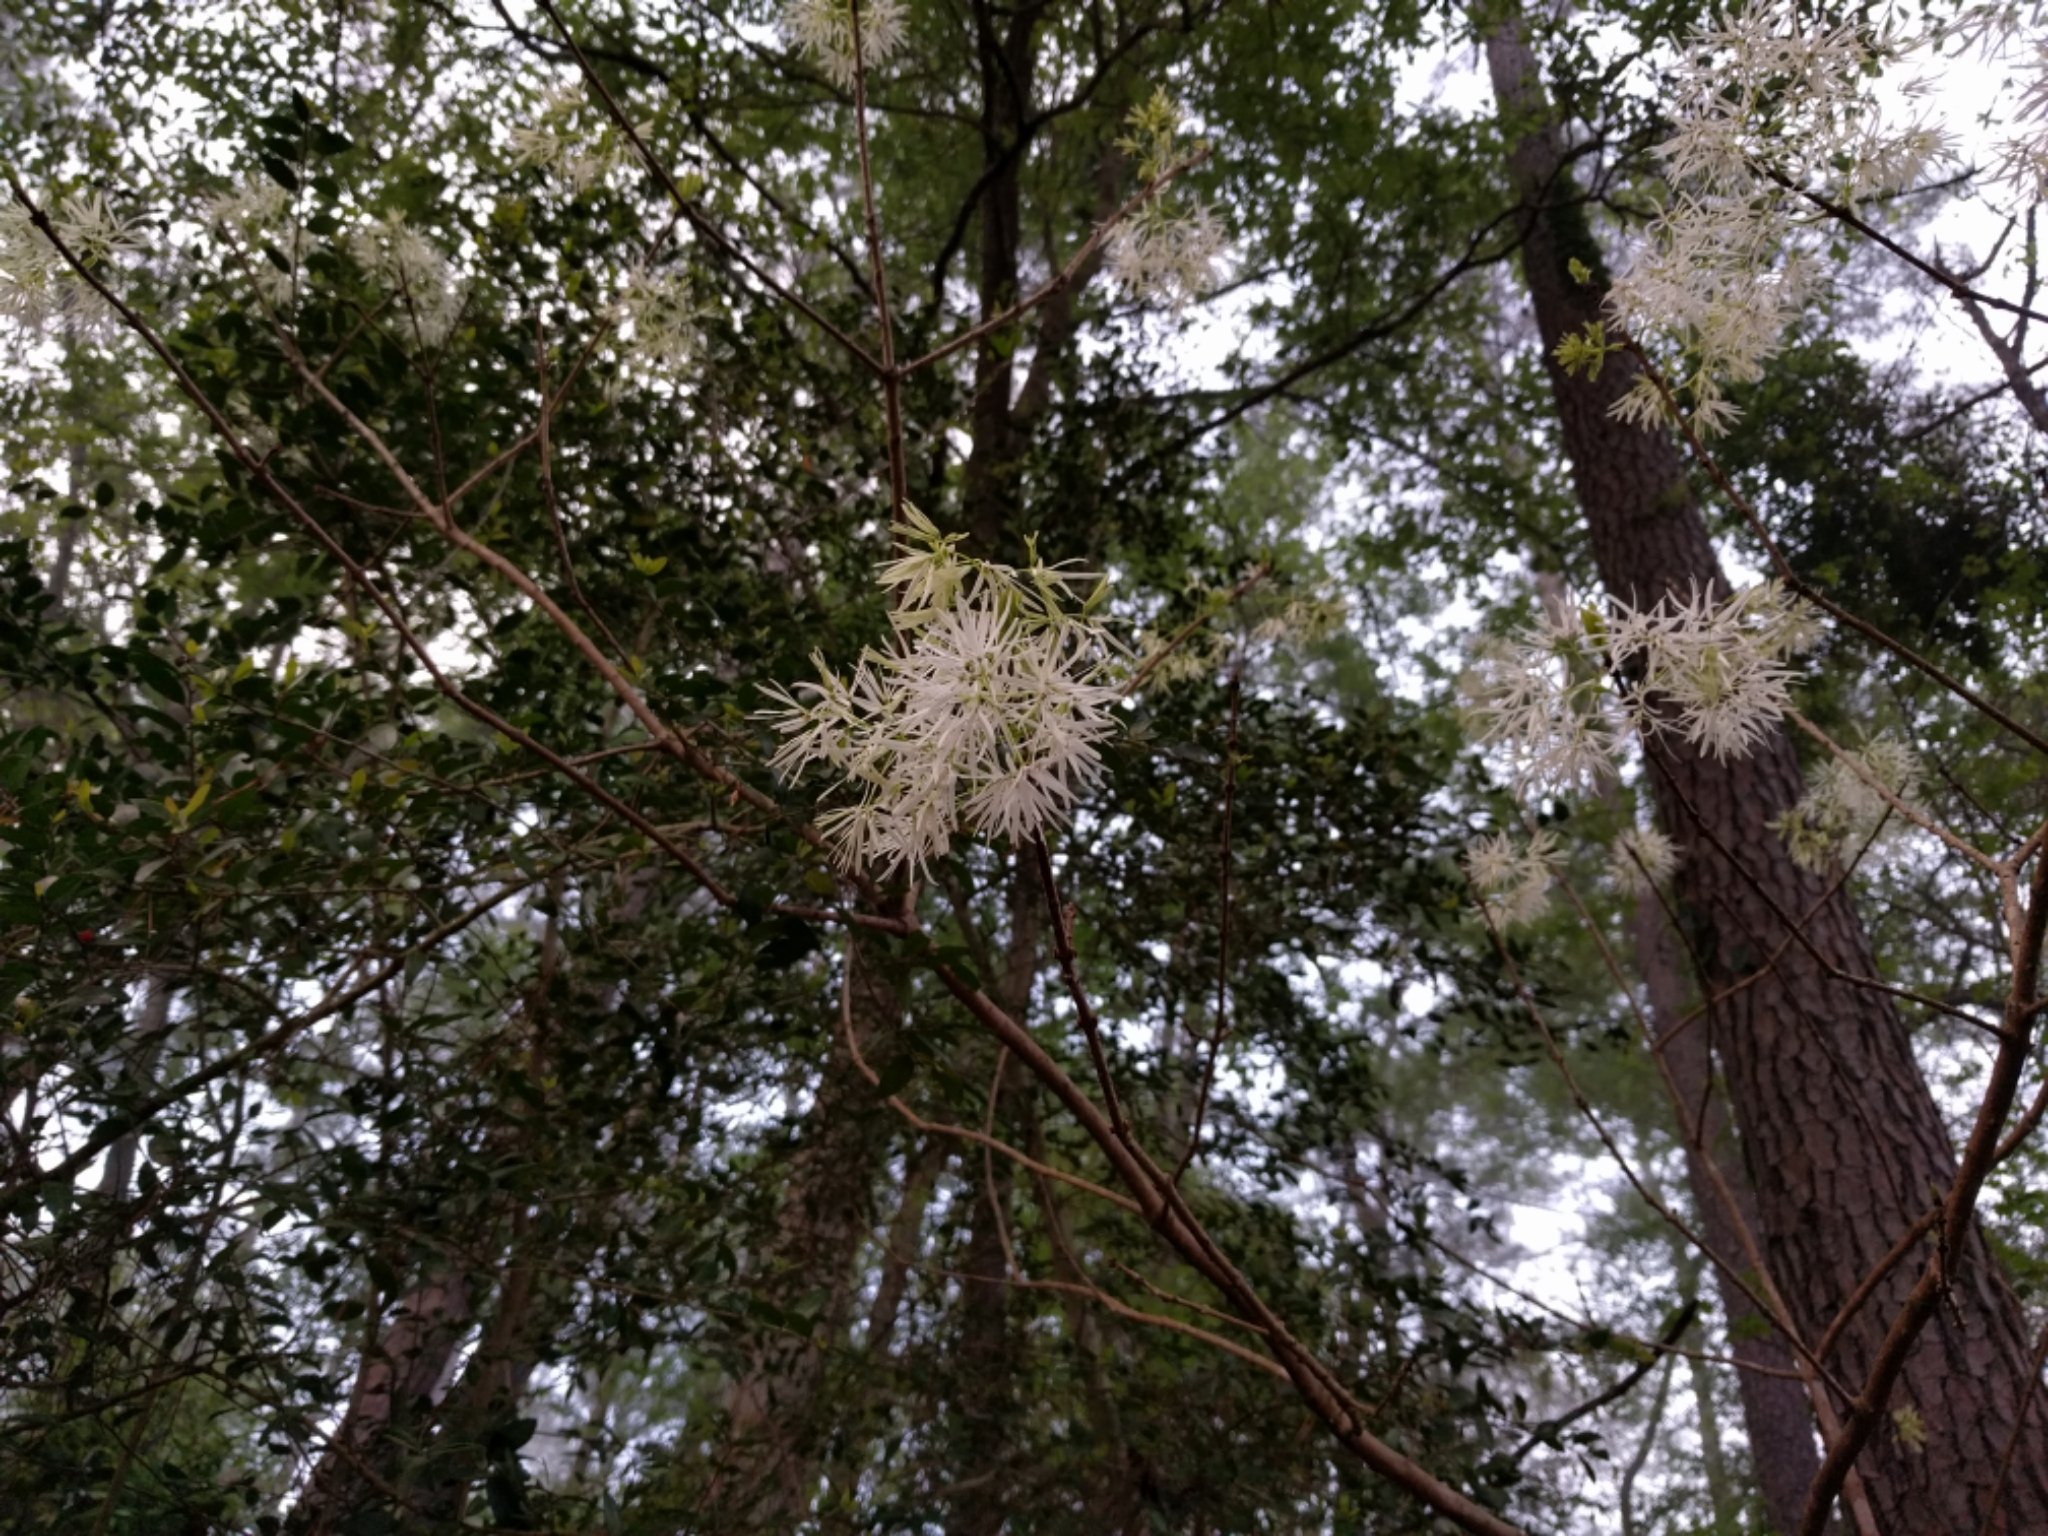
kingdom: Plantae
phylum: Tracheophyta
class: Magnoliopsida
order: Lamiales
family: Oleaceae
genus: Chionanthus
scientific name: Chionanthus virginicus
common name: American fringetree
